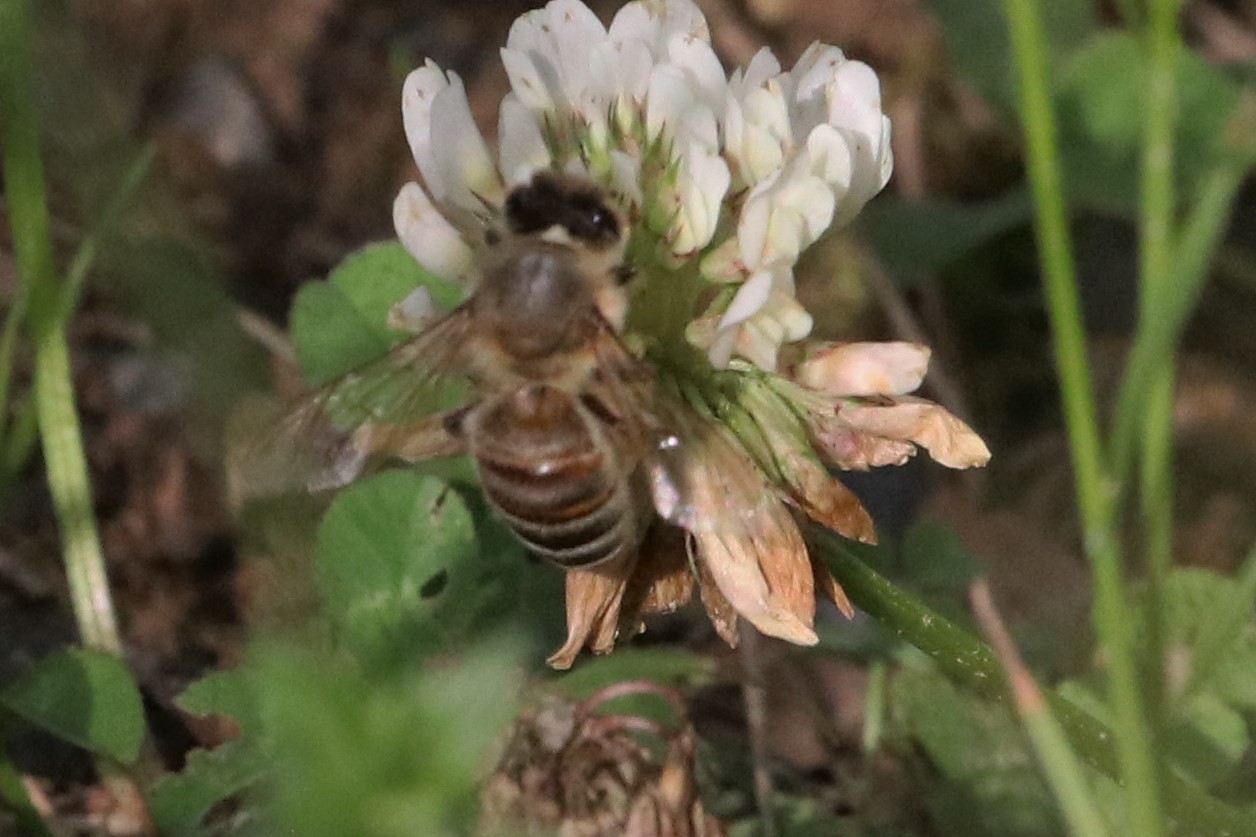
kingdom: Animalia
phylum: Arthropoda
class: Insecta
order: Hymenoptera
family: Apidae
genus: Apis
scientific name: Apis mellifera
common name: Honey bee
